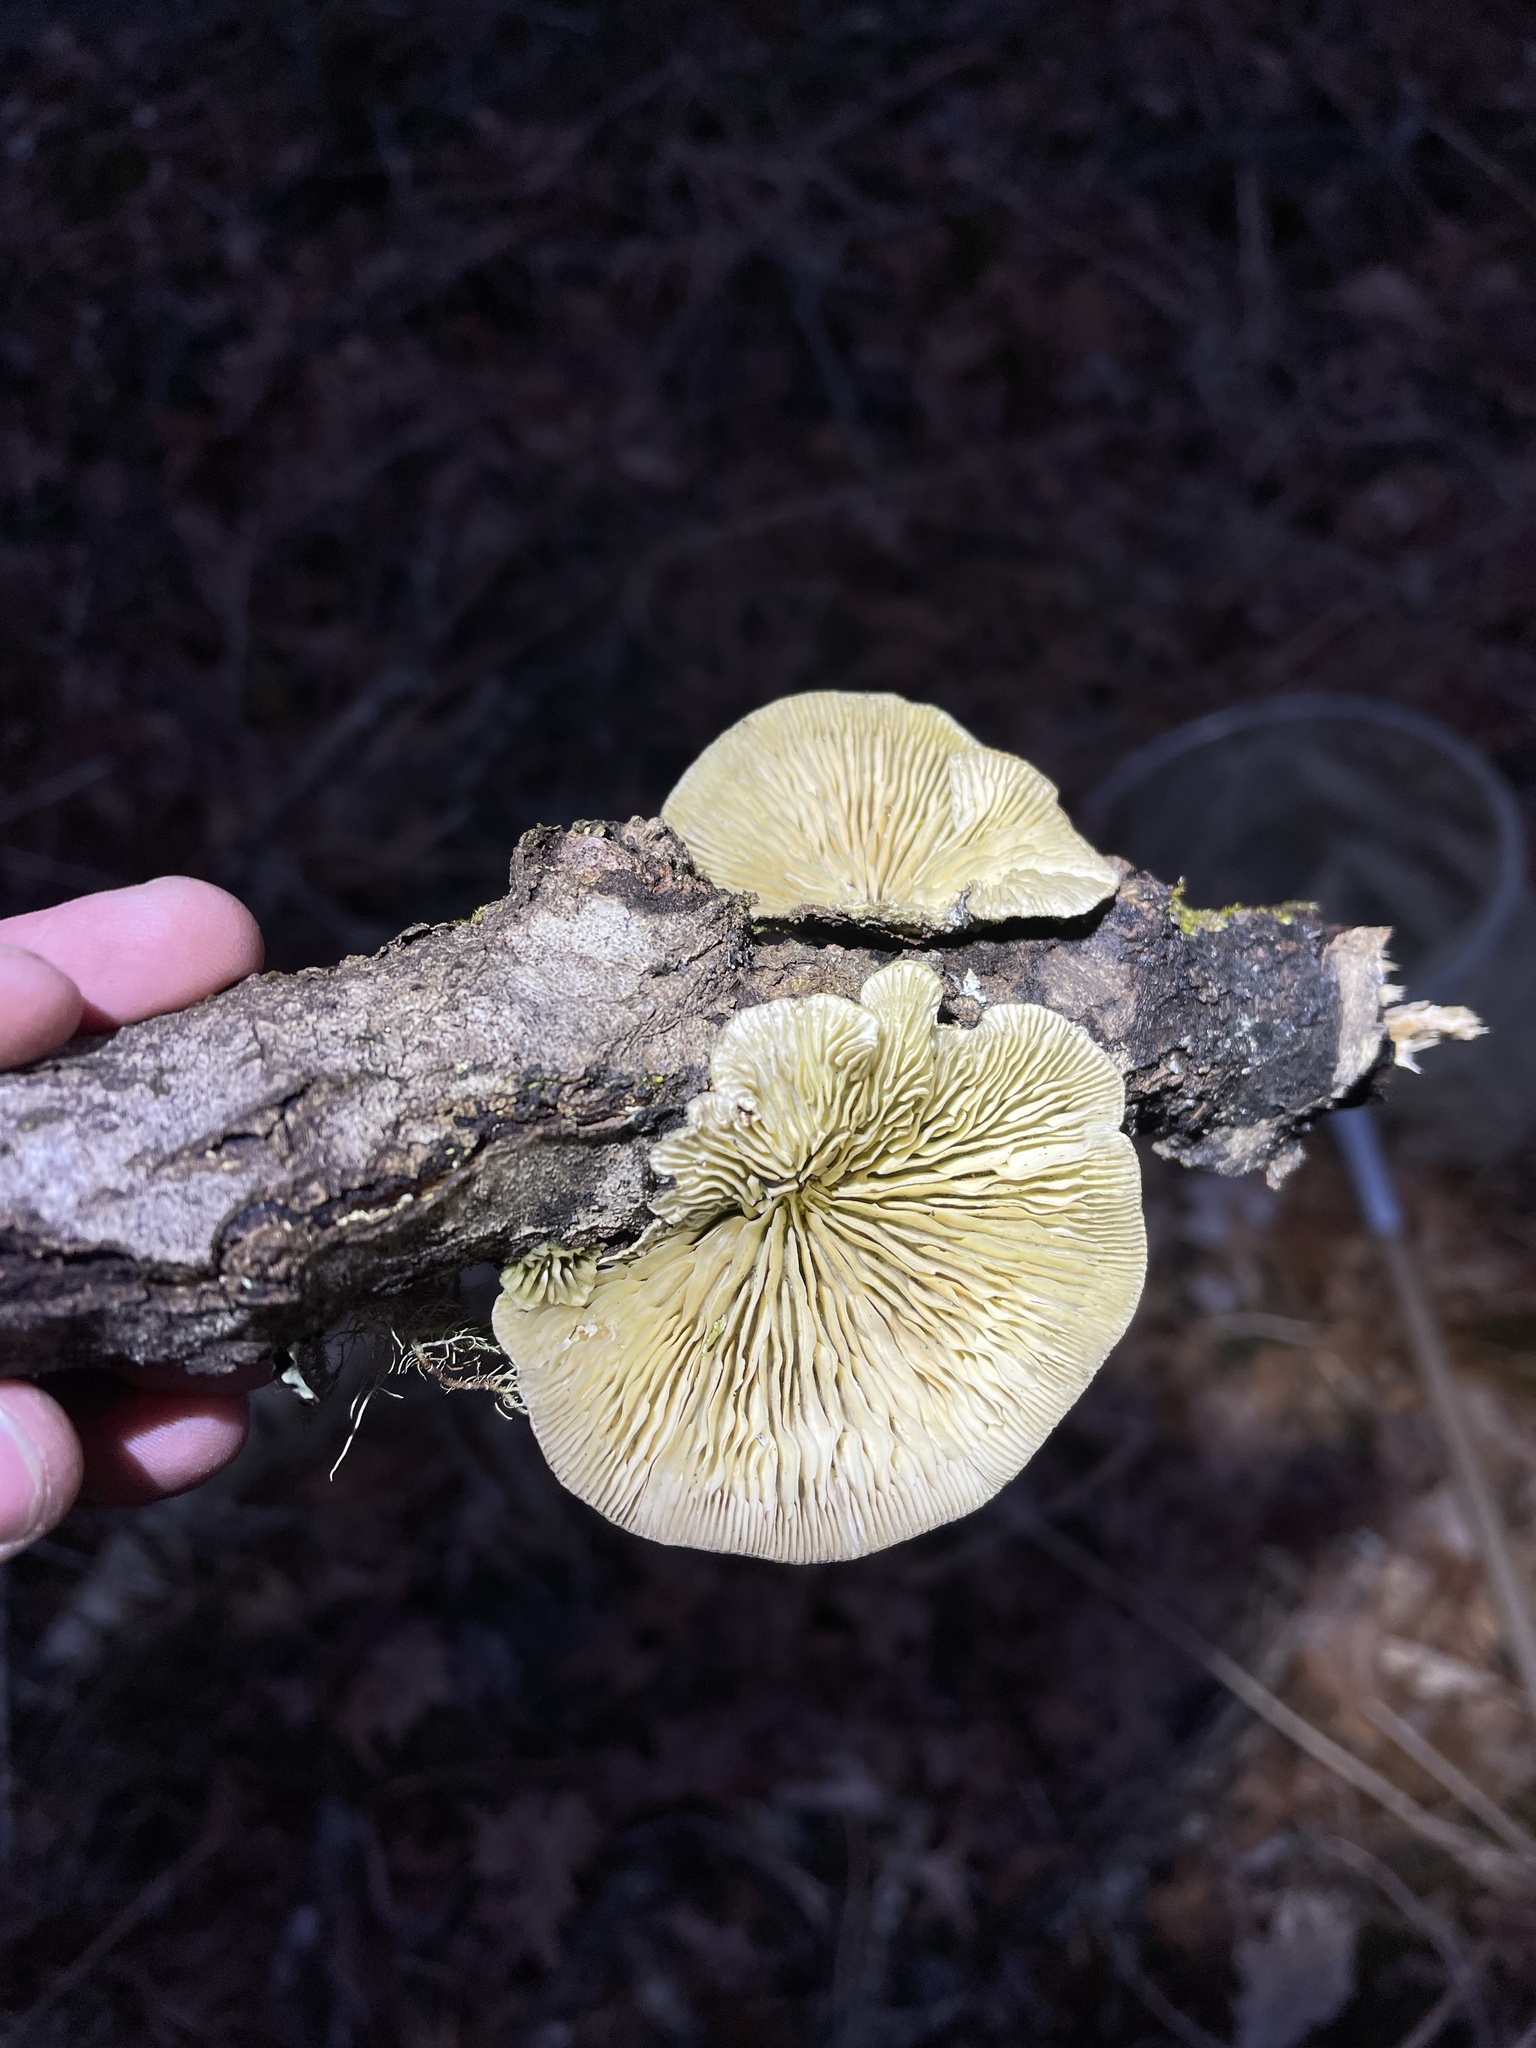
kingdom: Fungi
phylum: Basidiomycota
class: Agaricomycetes
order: Polyporales
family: Polyporaceae
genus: Lenzites
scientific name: Lenzites betulinus
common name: Birch mazegill
